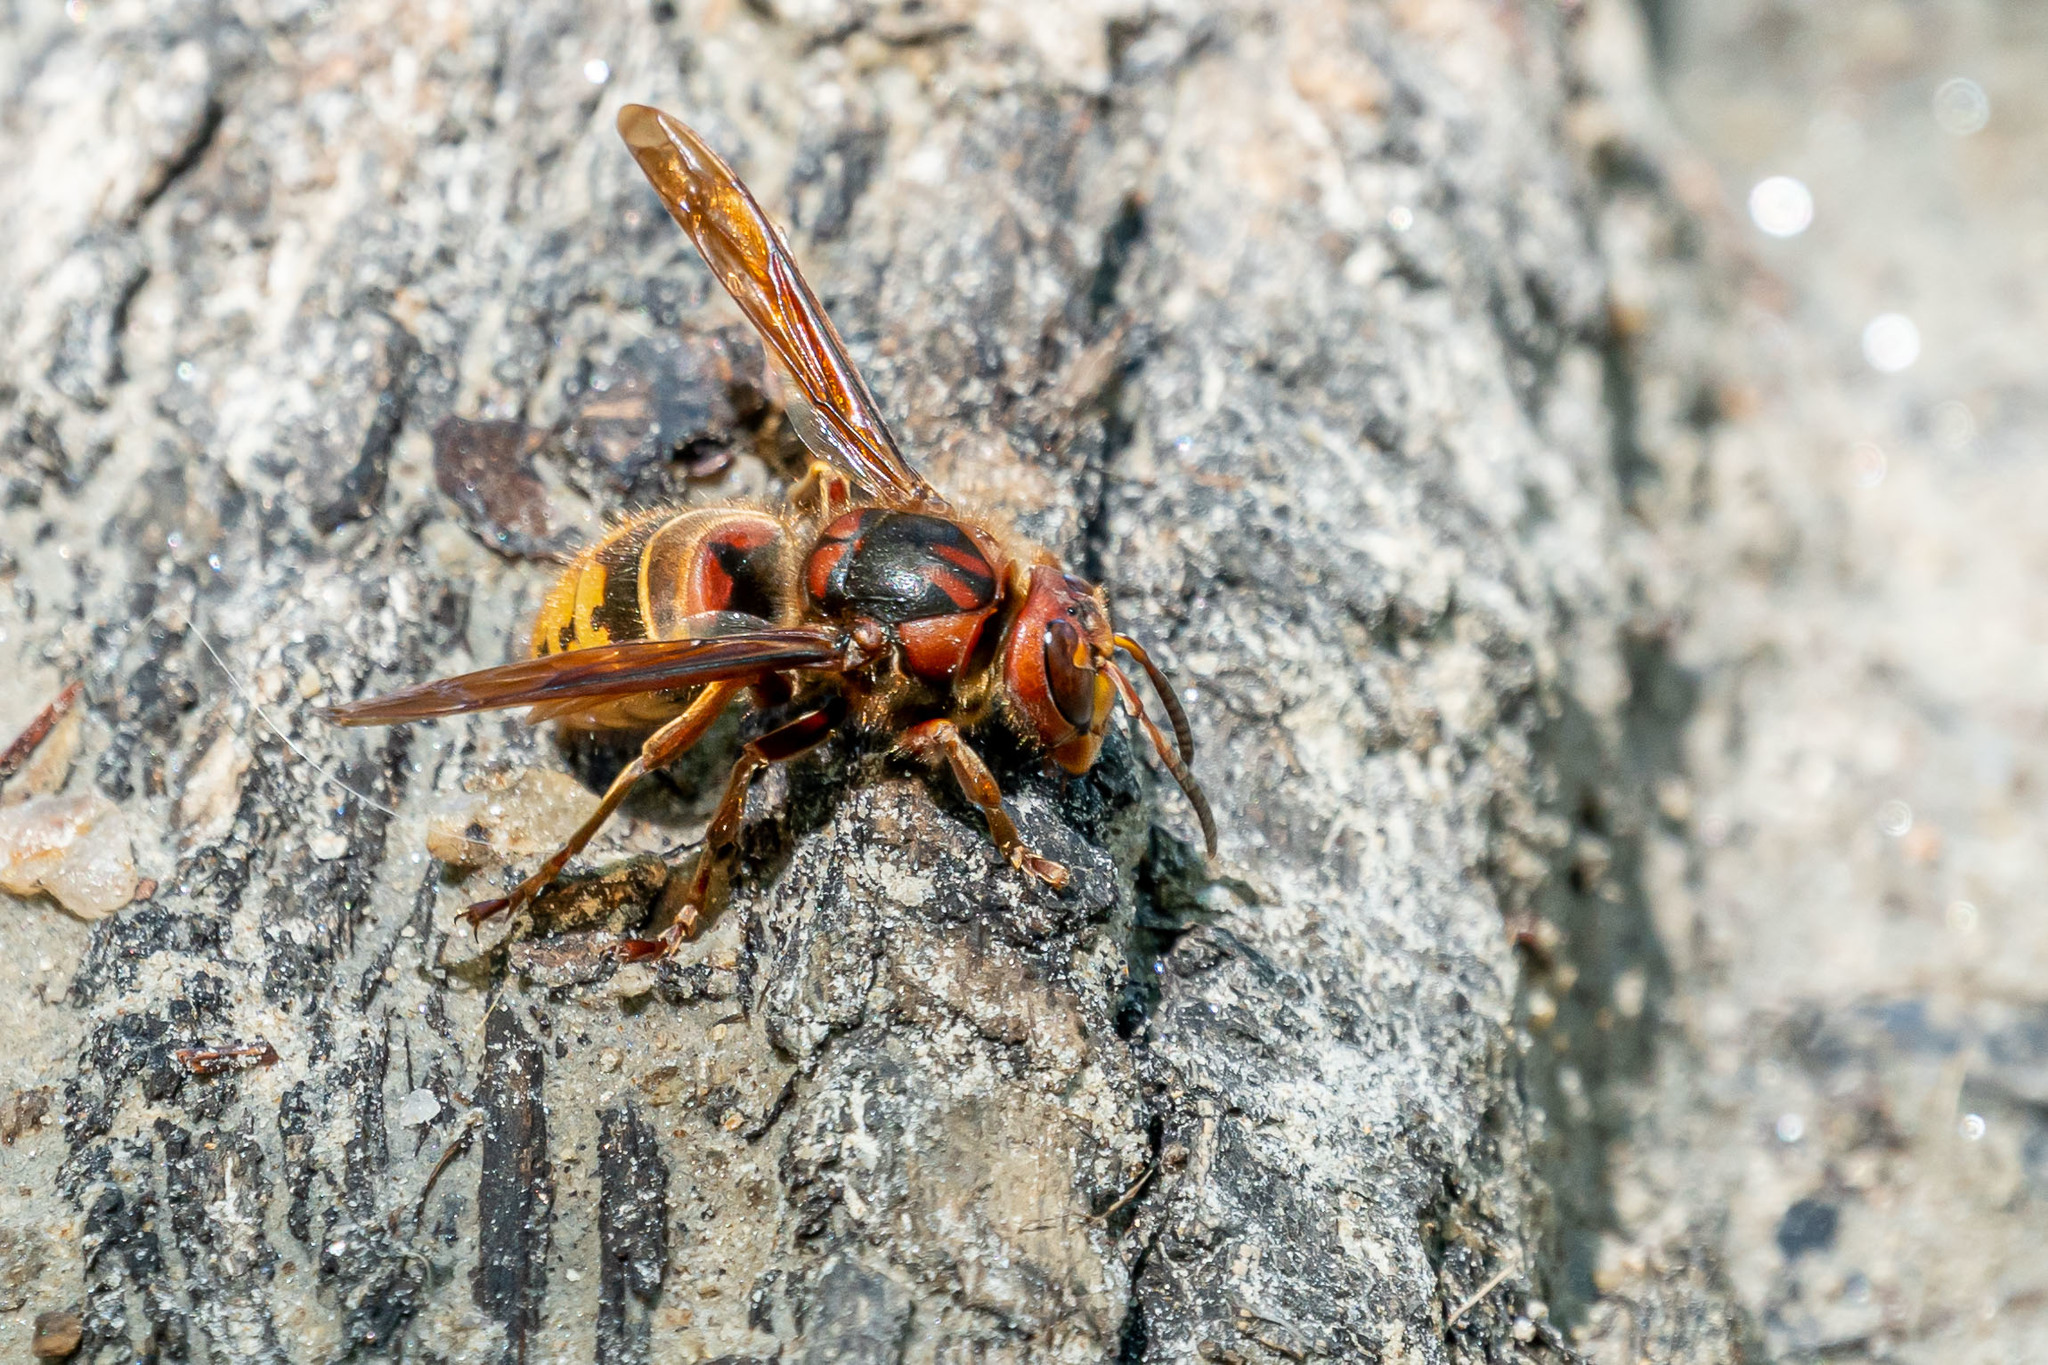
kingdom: Animalia
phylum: Arthropoda
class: Insecta
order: Hymenoptera
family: Vespidae
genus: Vespa
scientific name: Vespa crabro
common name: Hornet
